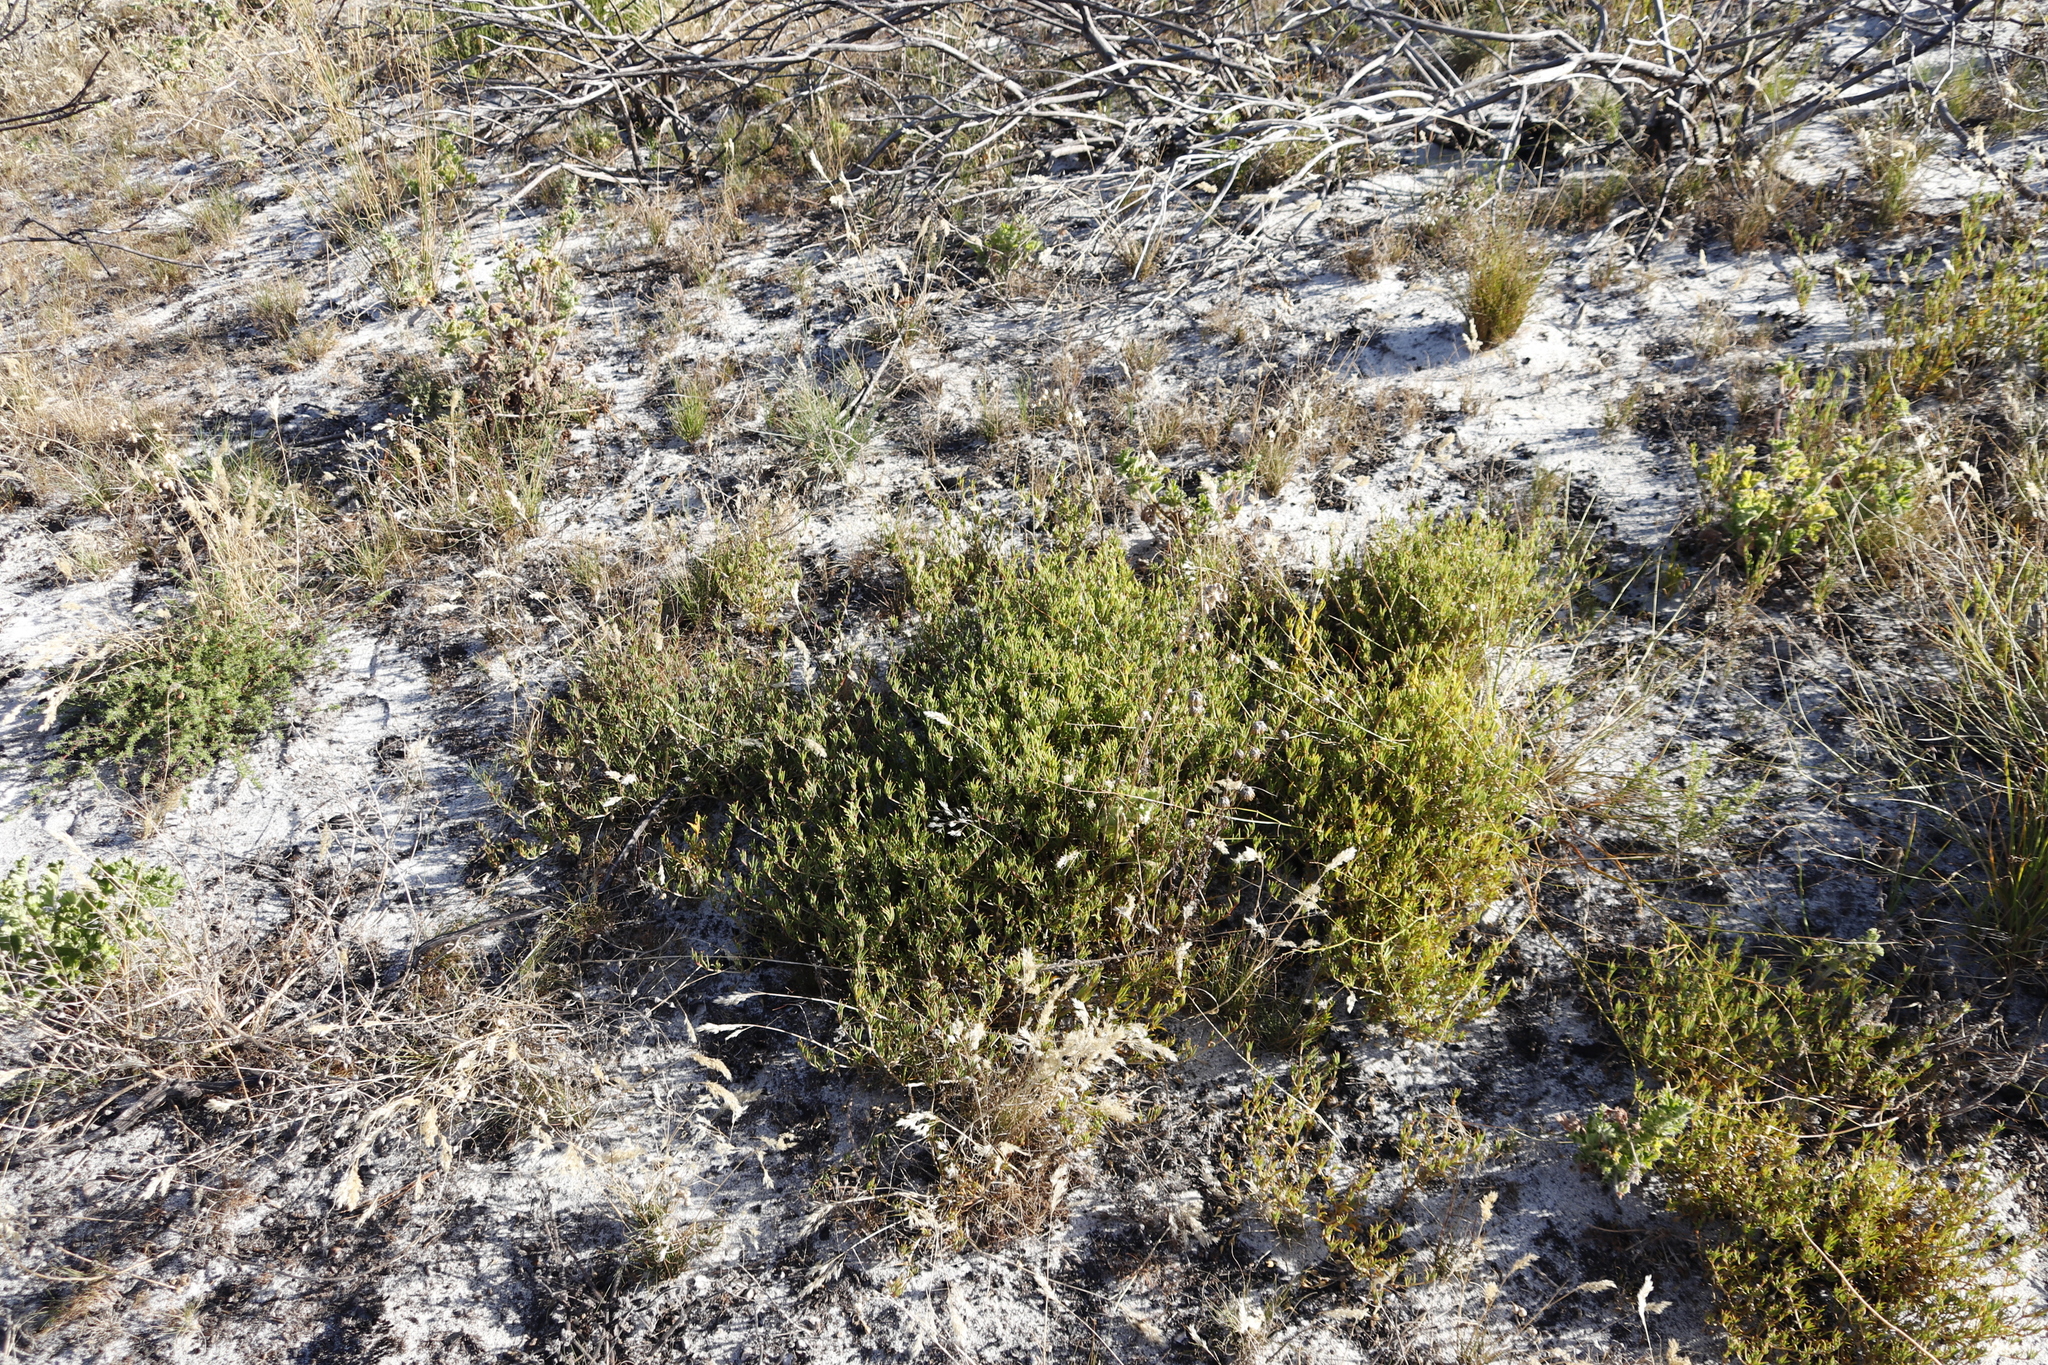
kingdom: Plantae
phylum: Tracheophyta
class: Magnoliopsida
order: Caryophyllales
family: Aizoaceae
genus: Acrosanthes
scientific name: Acrosanthes teretifolia
